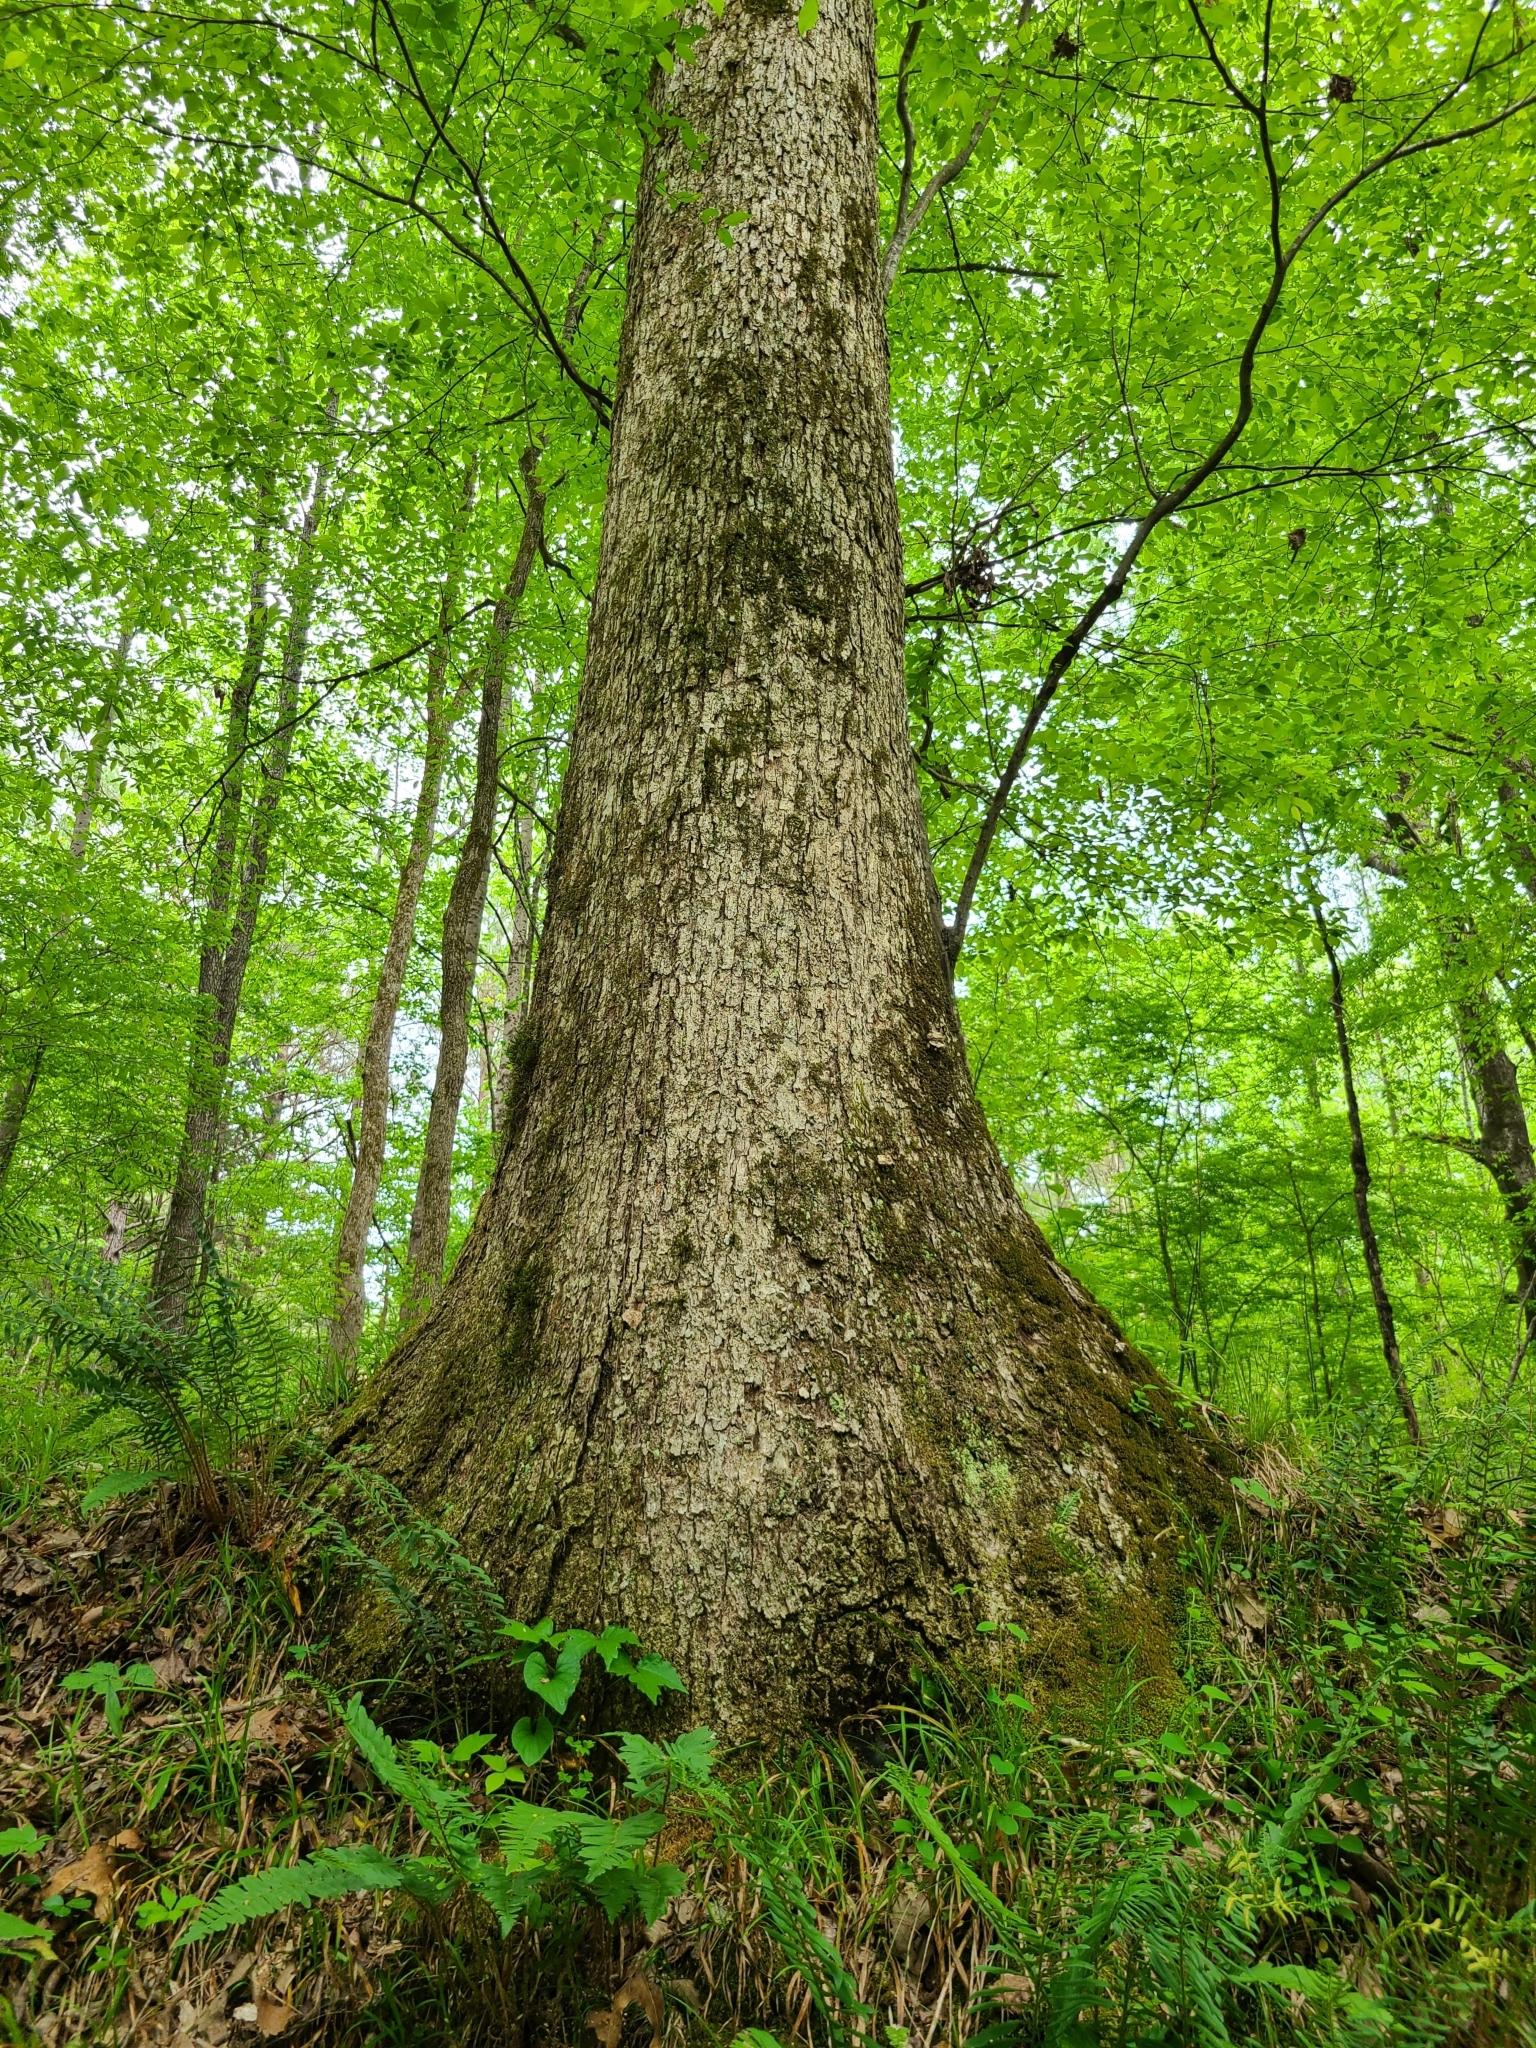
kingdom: Plantae
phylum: Tracheophyta
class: Magnoliopsida
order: Fagales
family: Fagaceae
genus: Quercus
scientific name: Quercus michauxii
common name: Swamp chestnut oak
